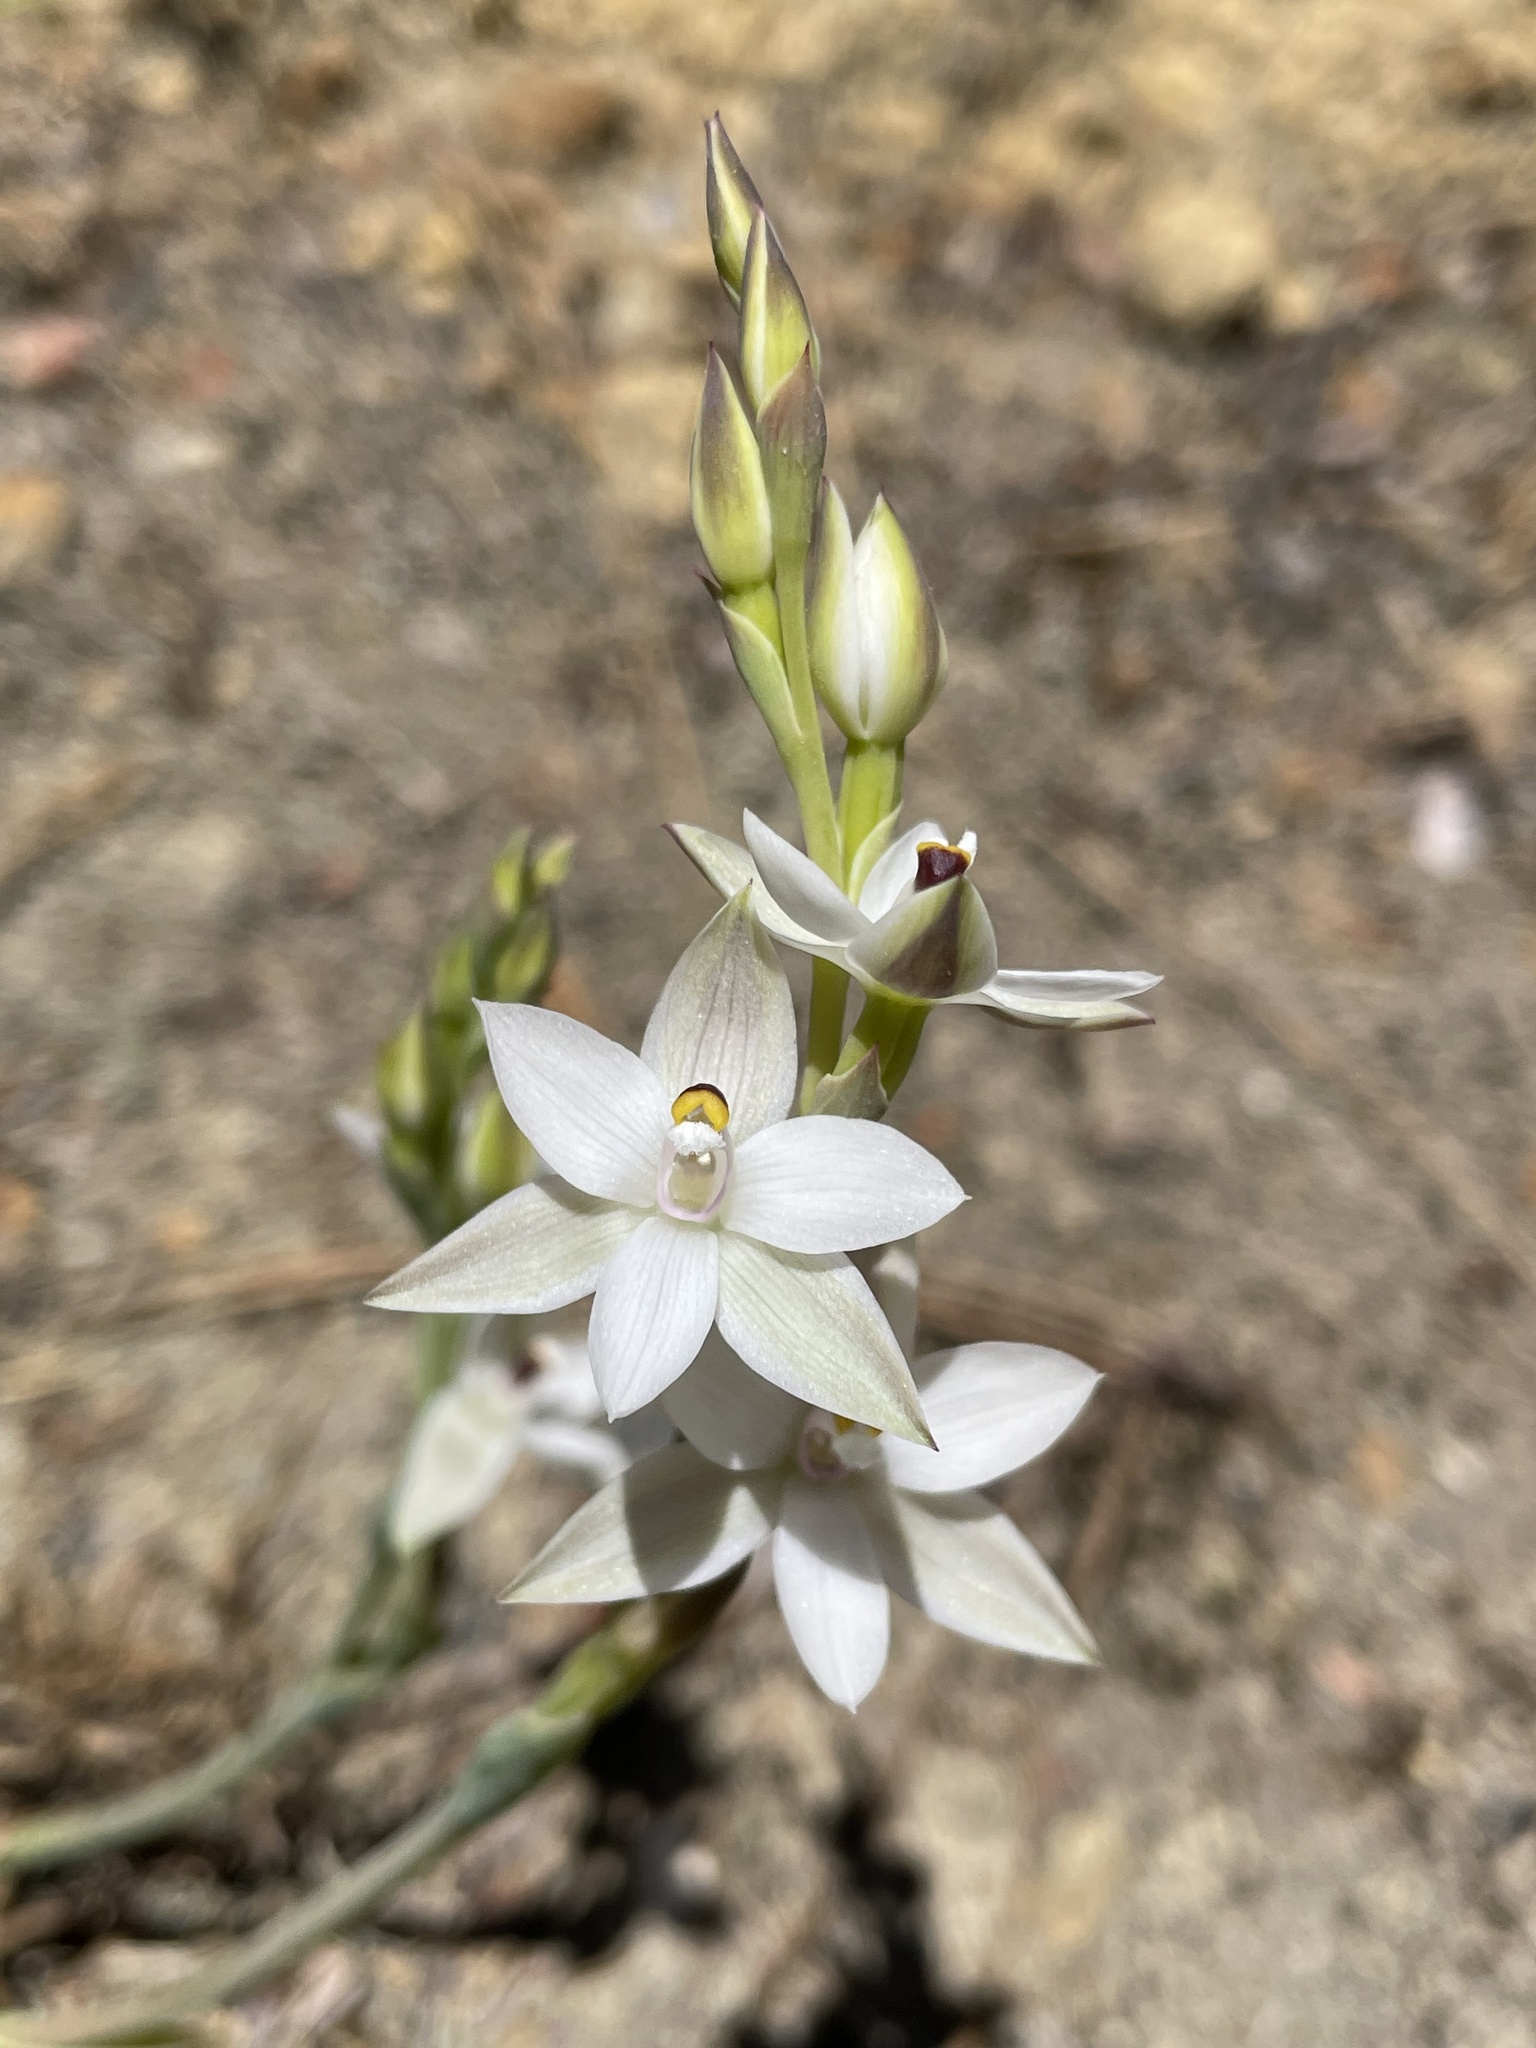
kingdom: Plantae
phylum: Tracheophyta
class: Liliopsida
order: Asparagales
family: Orchidaceae
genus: Thelymitra
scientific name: Thelymitra longifolia
